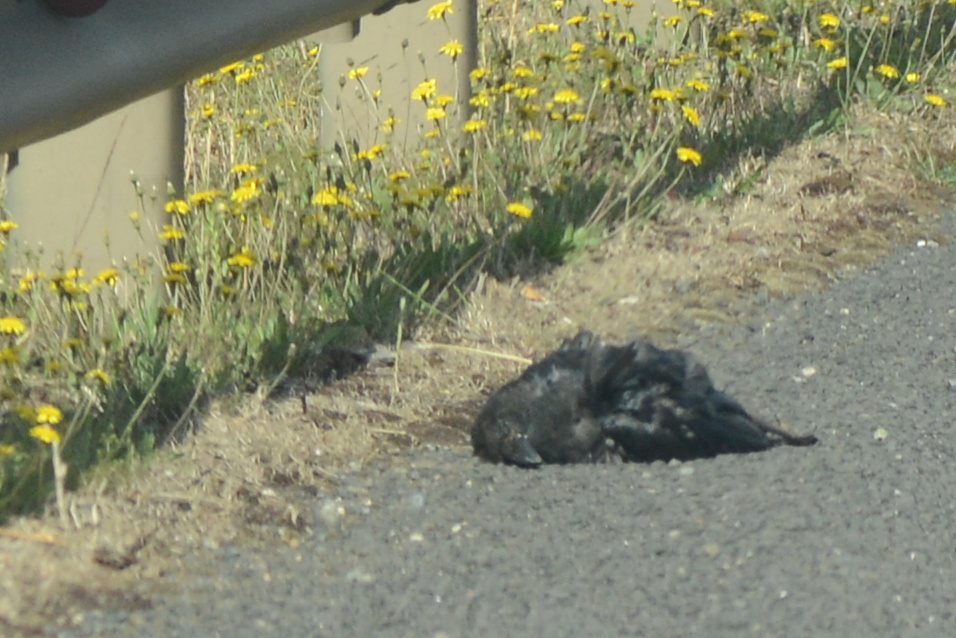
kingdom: Animalia
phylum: Chordata
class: Aves
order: Passeriformes
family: Corvidae
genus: Corvus
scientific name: Corvus tasmanicus
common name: Forest raven
